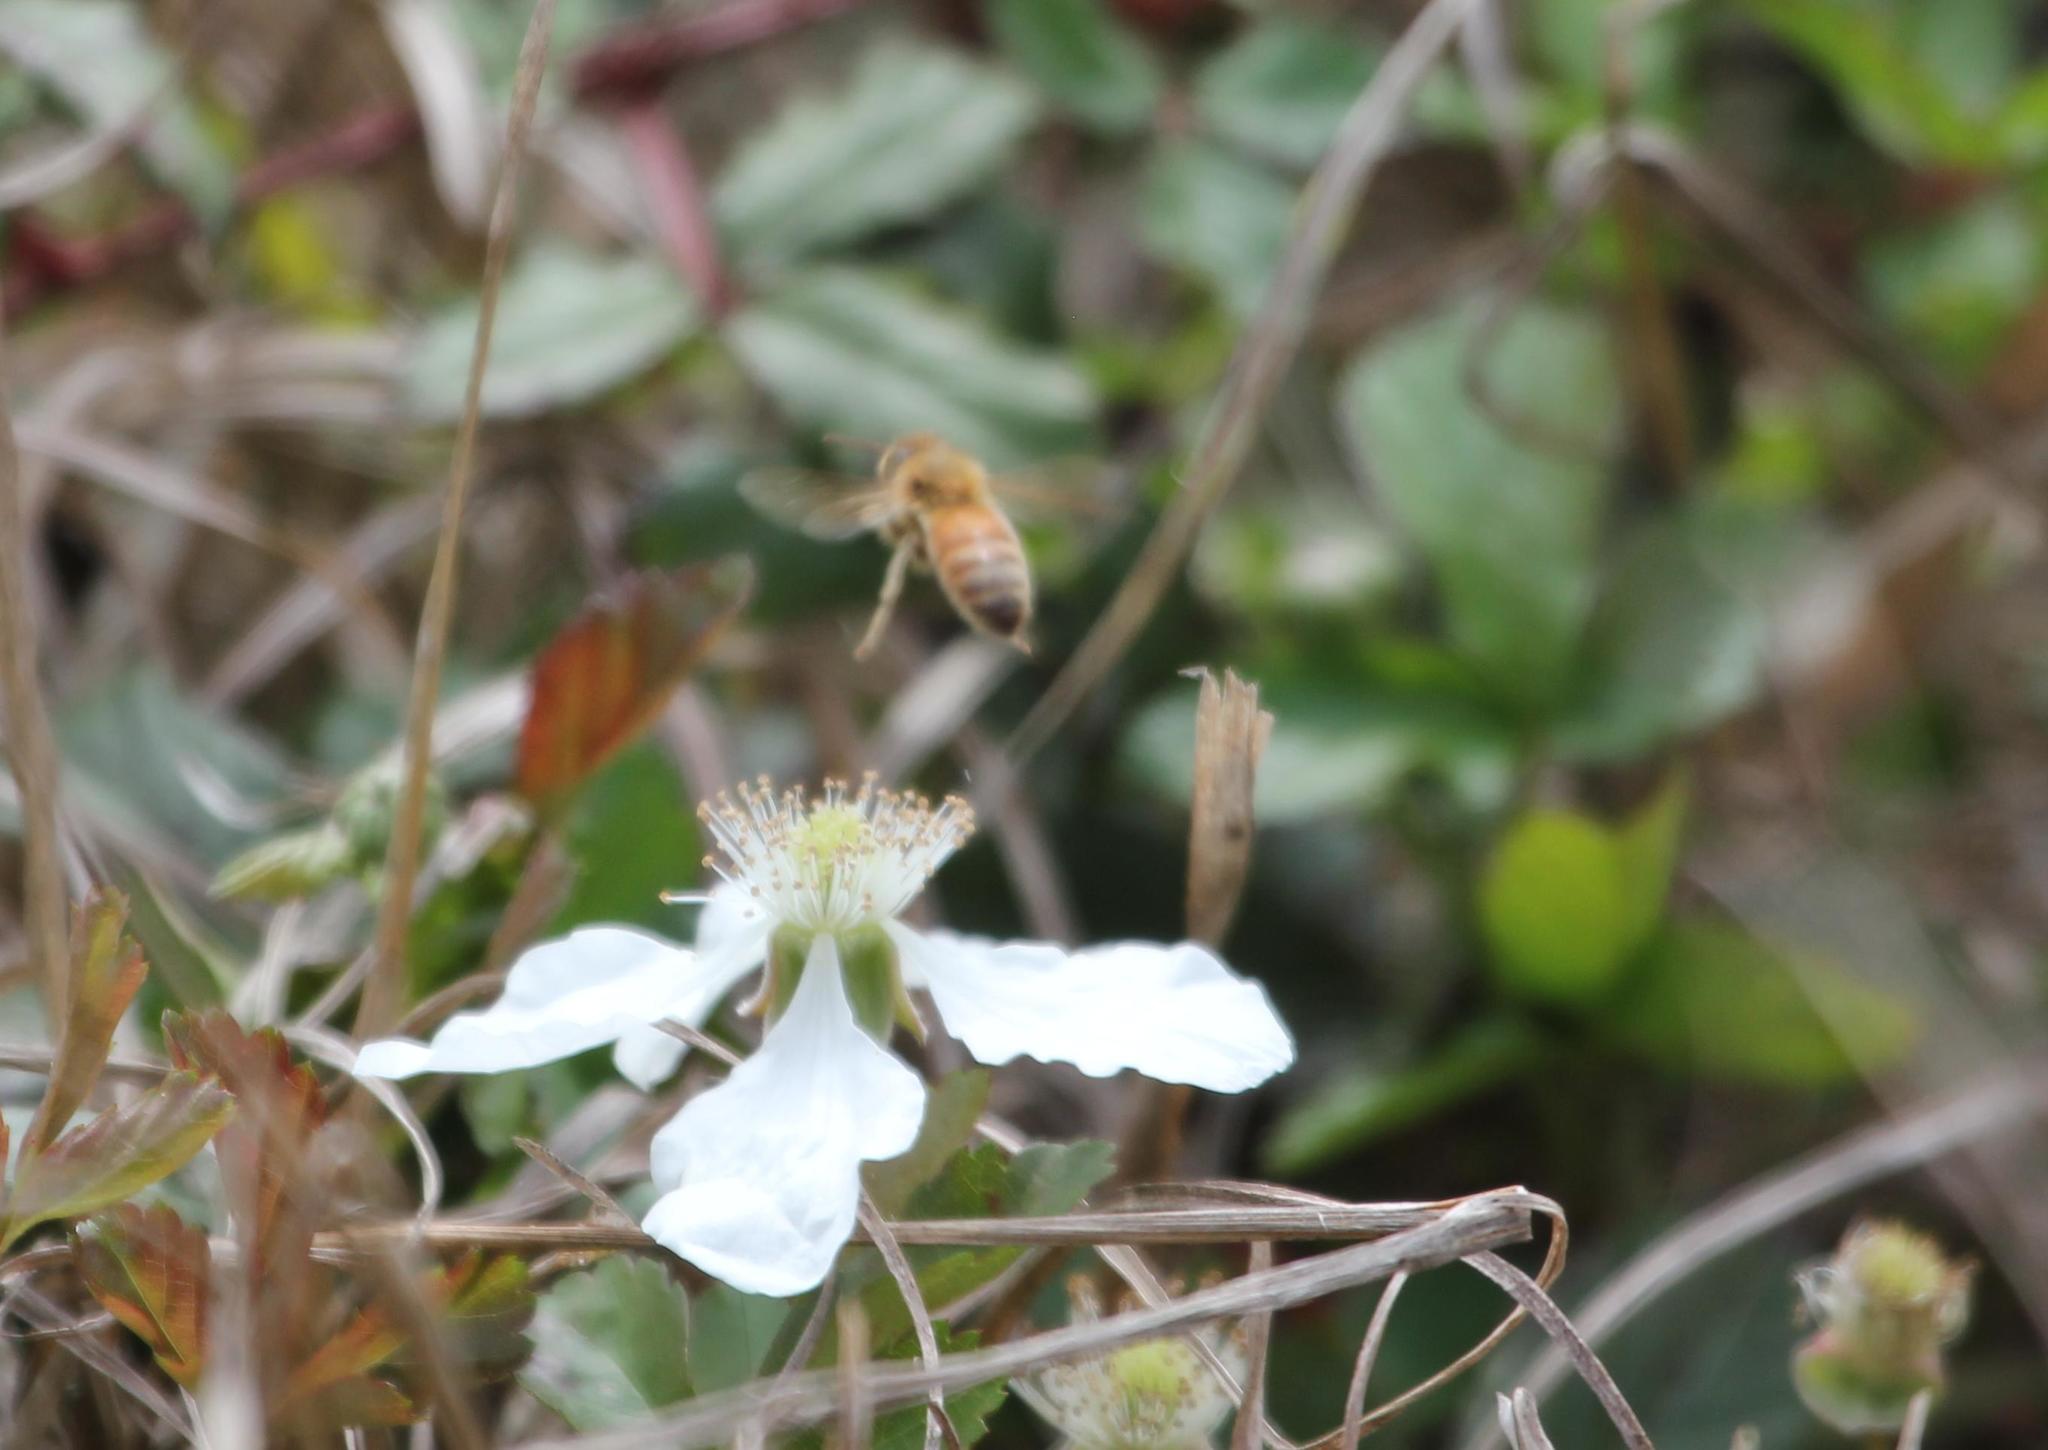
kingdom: Animalia
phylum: Arthropoda
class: Insecta
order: Hymenoptera
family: Apidae
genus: Apis
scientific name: Apis mellifera
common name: Honey bee
